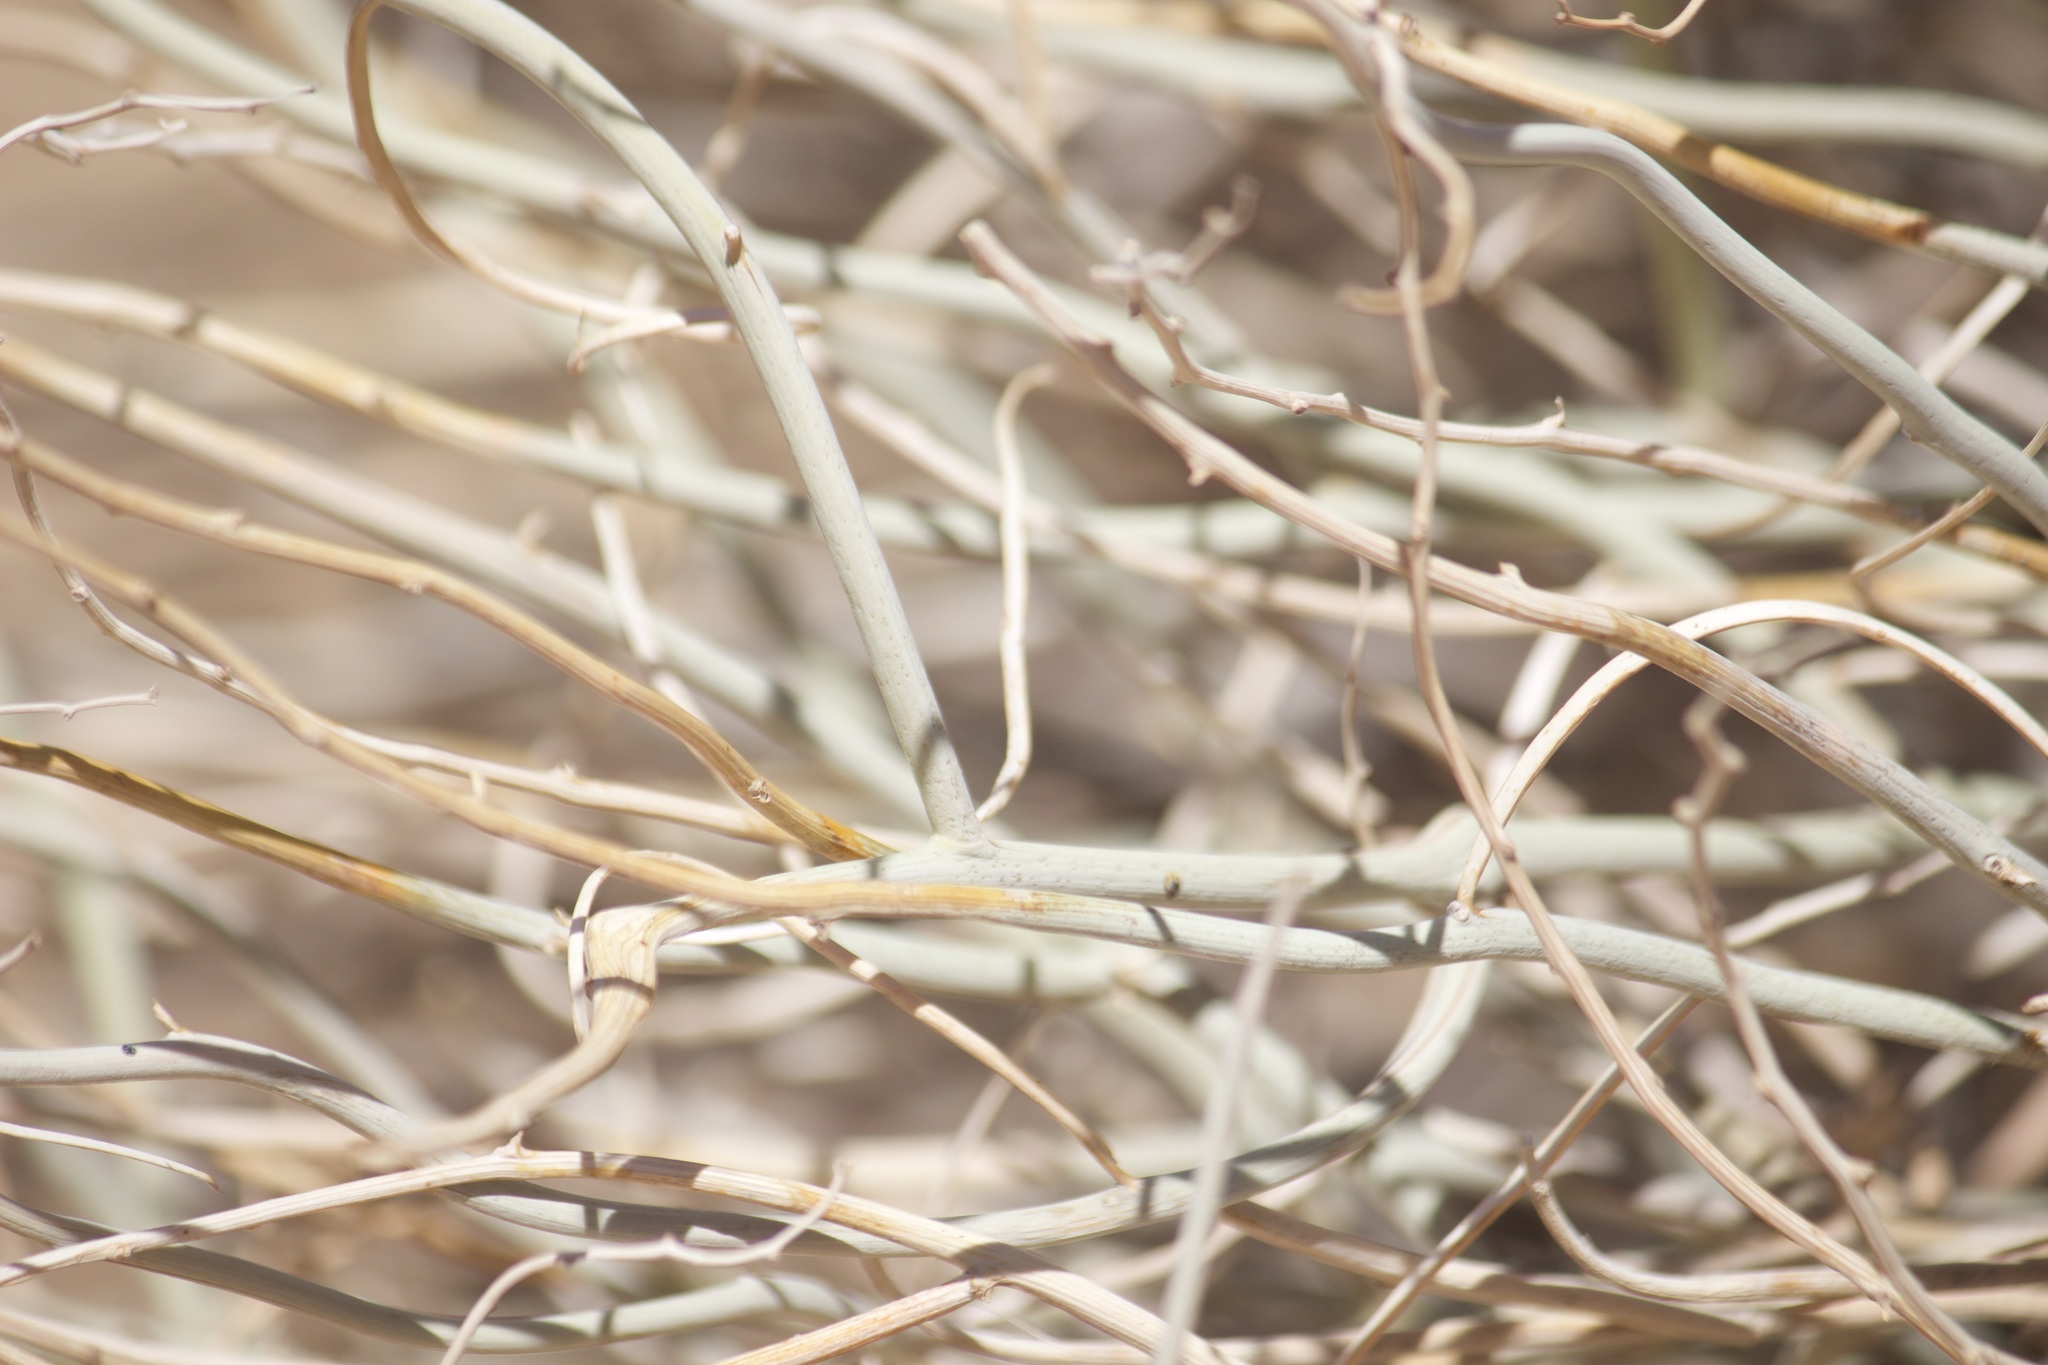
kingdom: Plantae
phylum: Tracheophyta
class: Magnoliopsida
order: Fabales
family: Fabaceae
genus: Senna
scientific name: Senna armata
